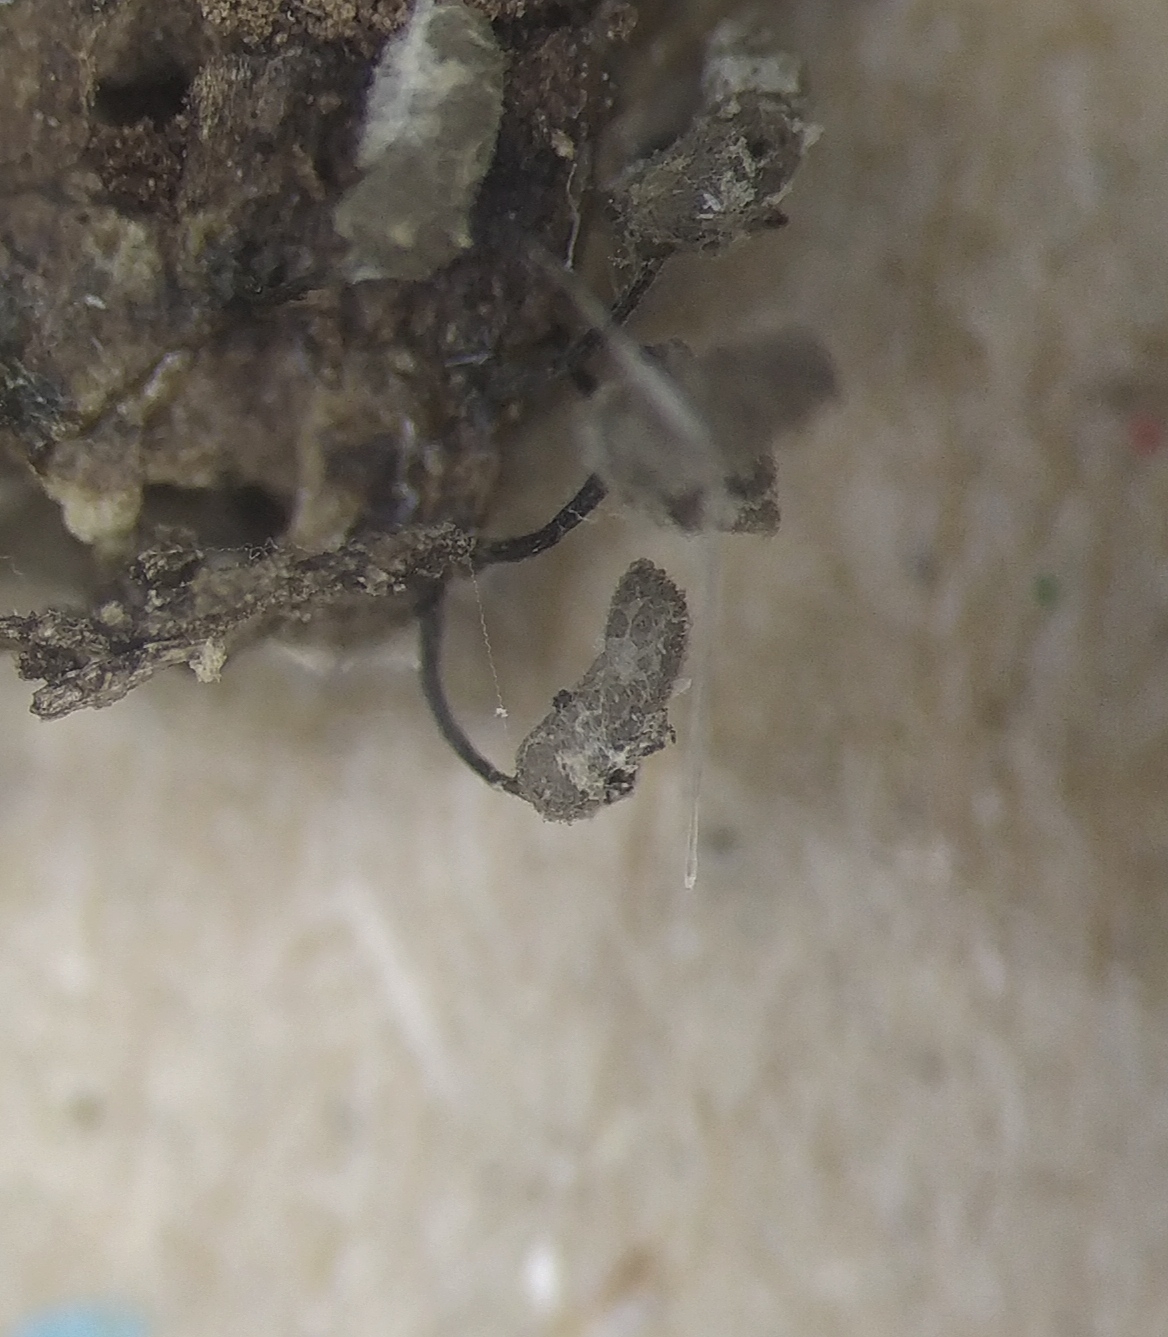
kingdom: Protozoa
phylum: Mycetozoa
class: Myxomycetes
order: Trichiales
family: Arcyriaceae
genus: Arcyria
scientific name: Arcyria cinerea
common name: White carnival candy slime mold
